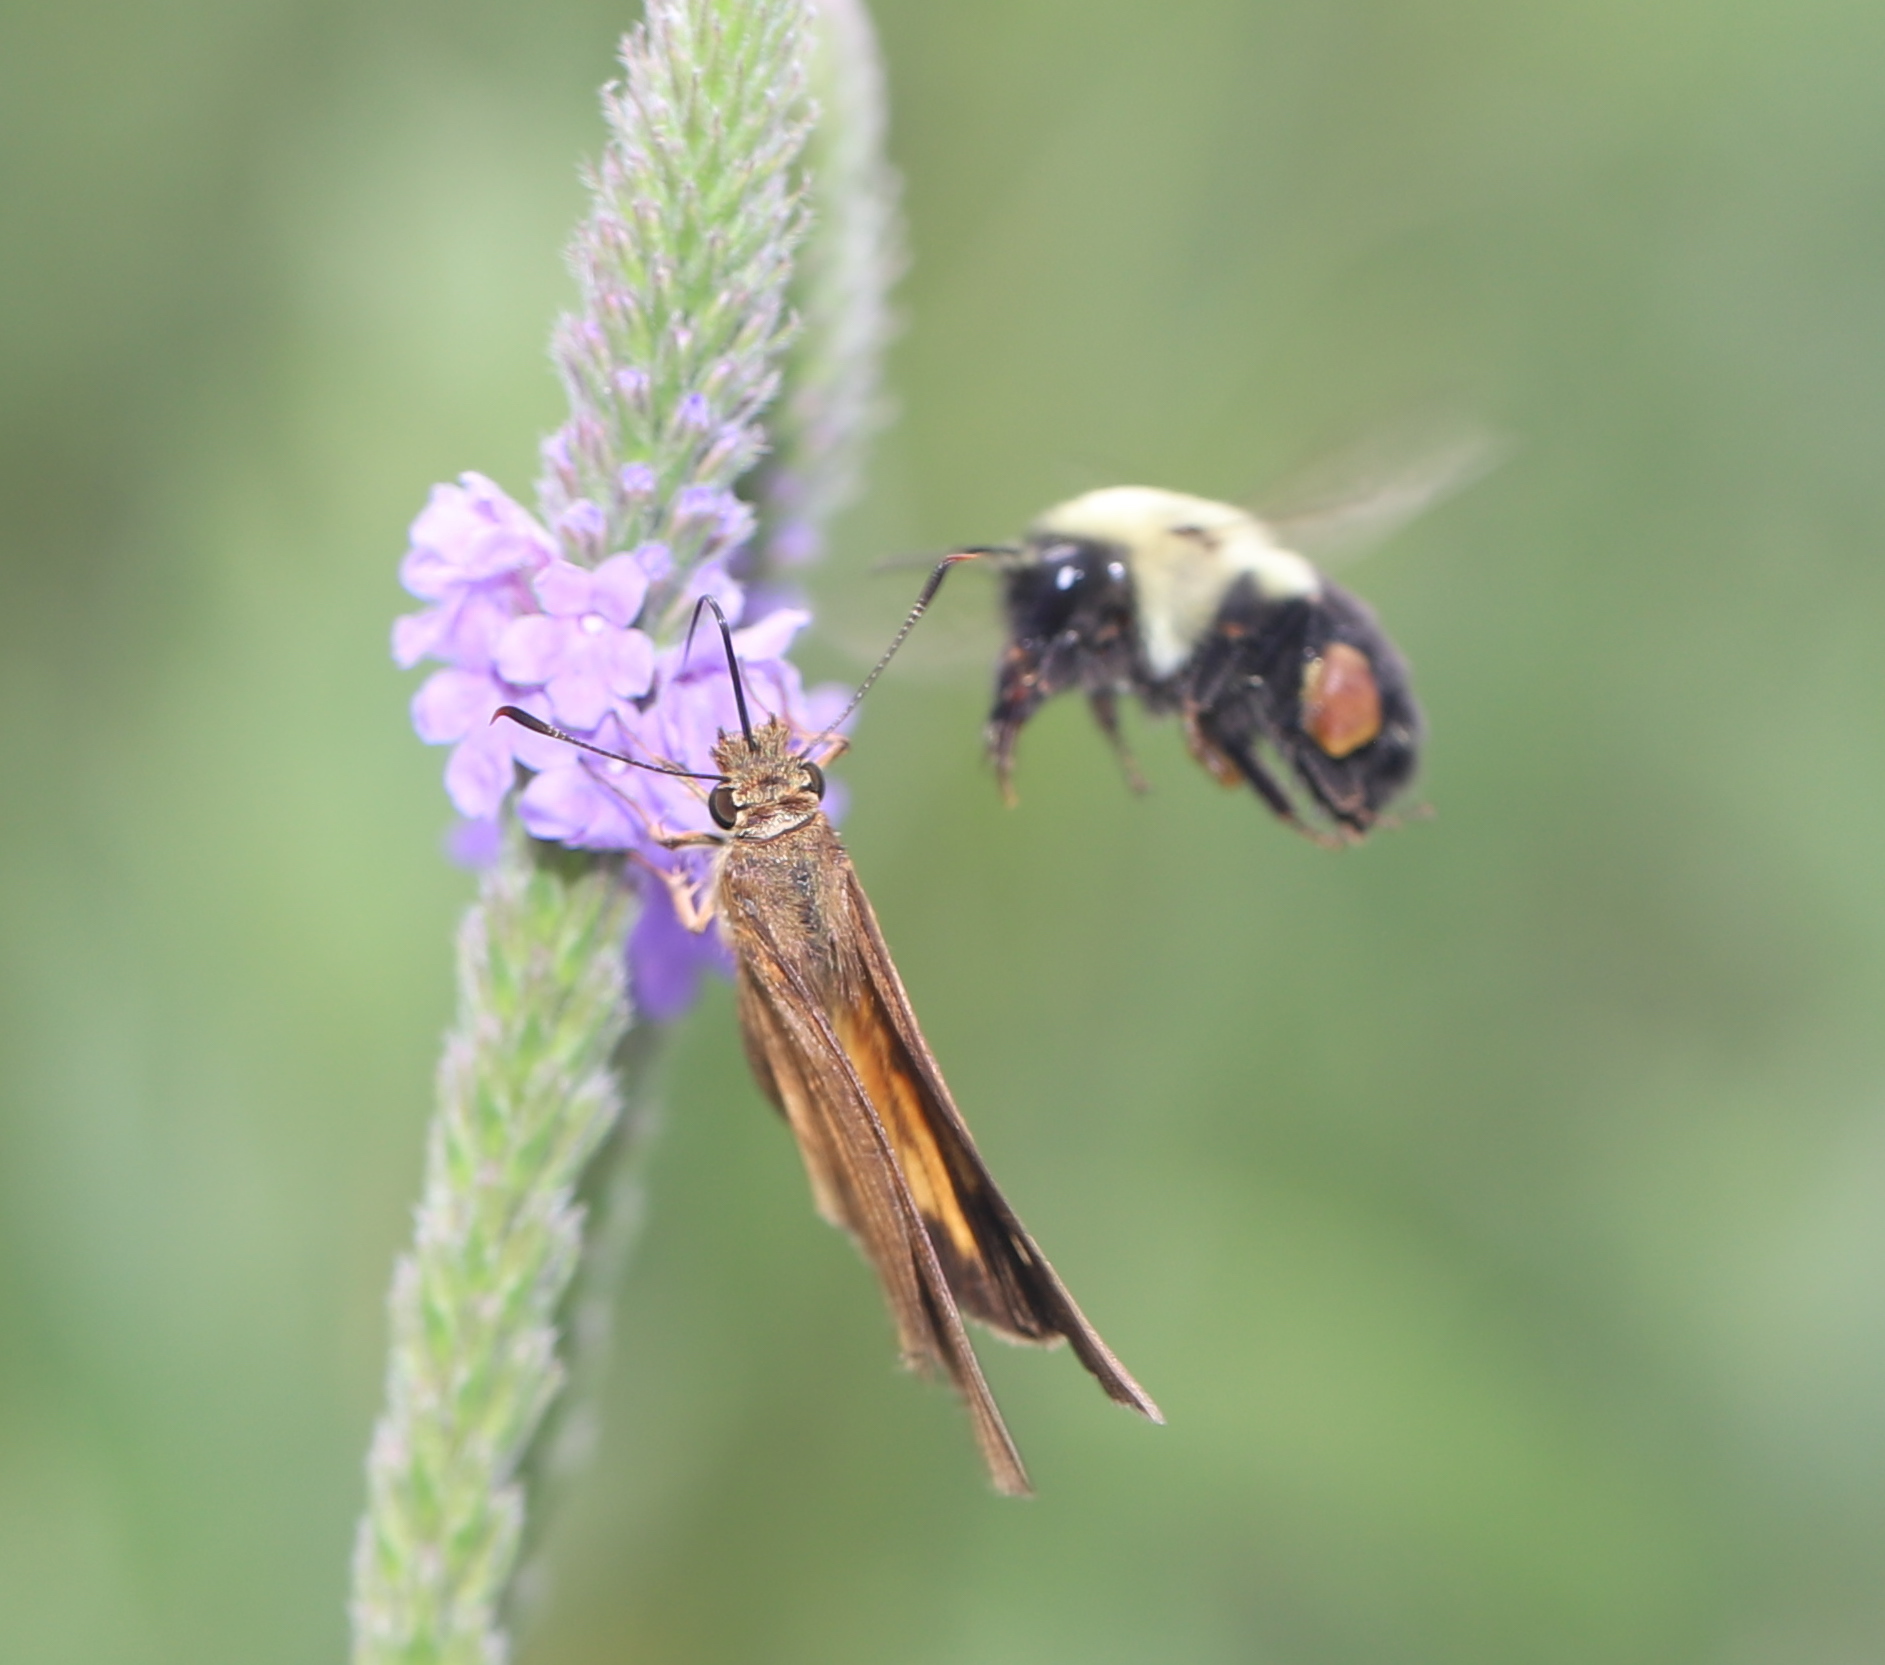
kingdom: Animalia
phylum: Arthropoda
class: Insecta
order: Hymenoptera
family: Apidae
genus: Bombus
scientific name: Bombus impatiens
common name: Common eastern bumble bee
